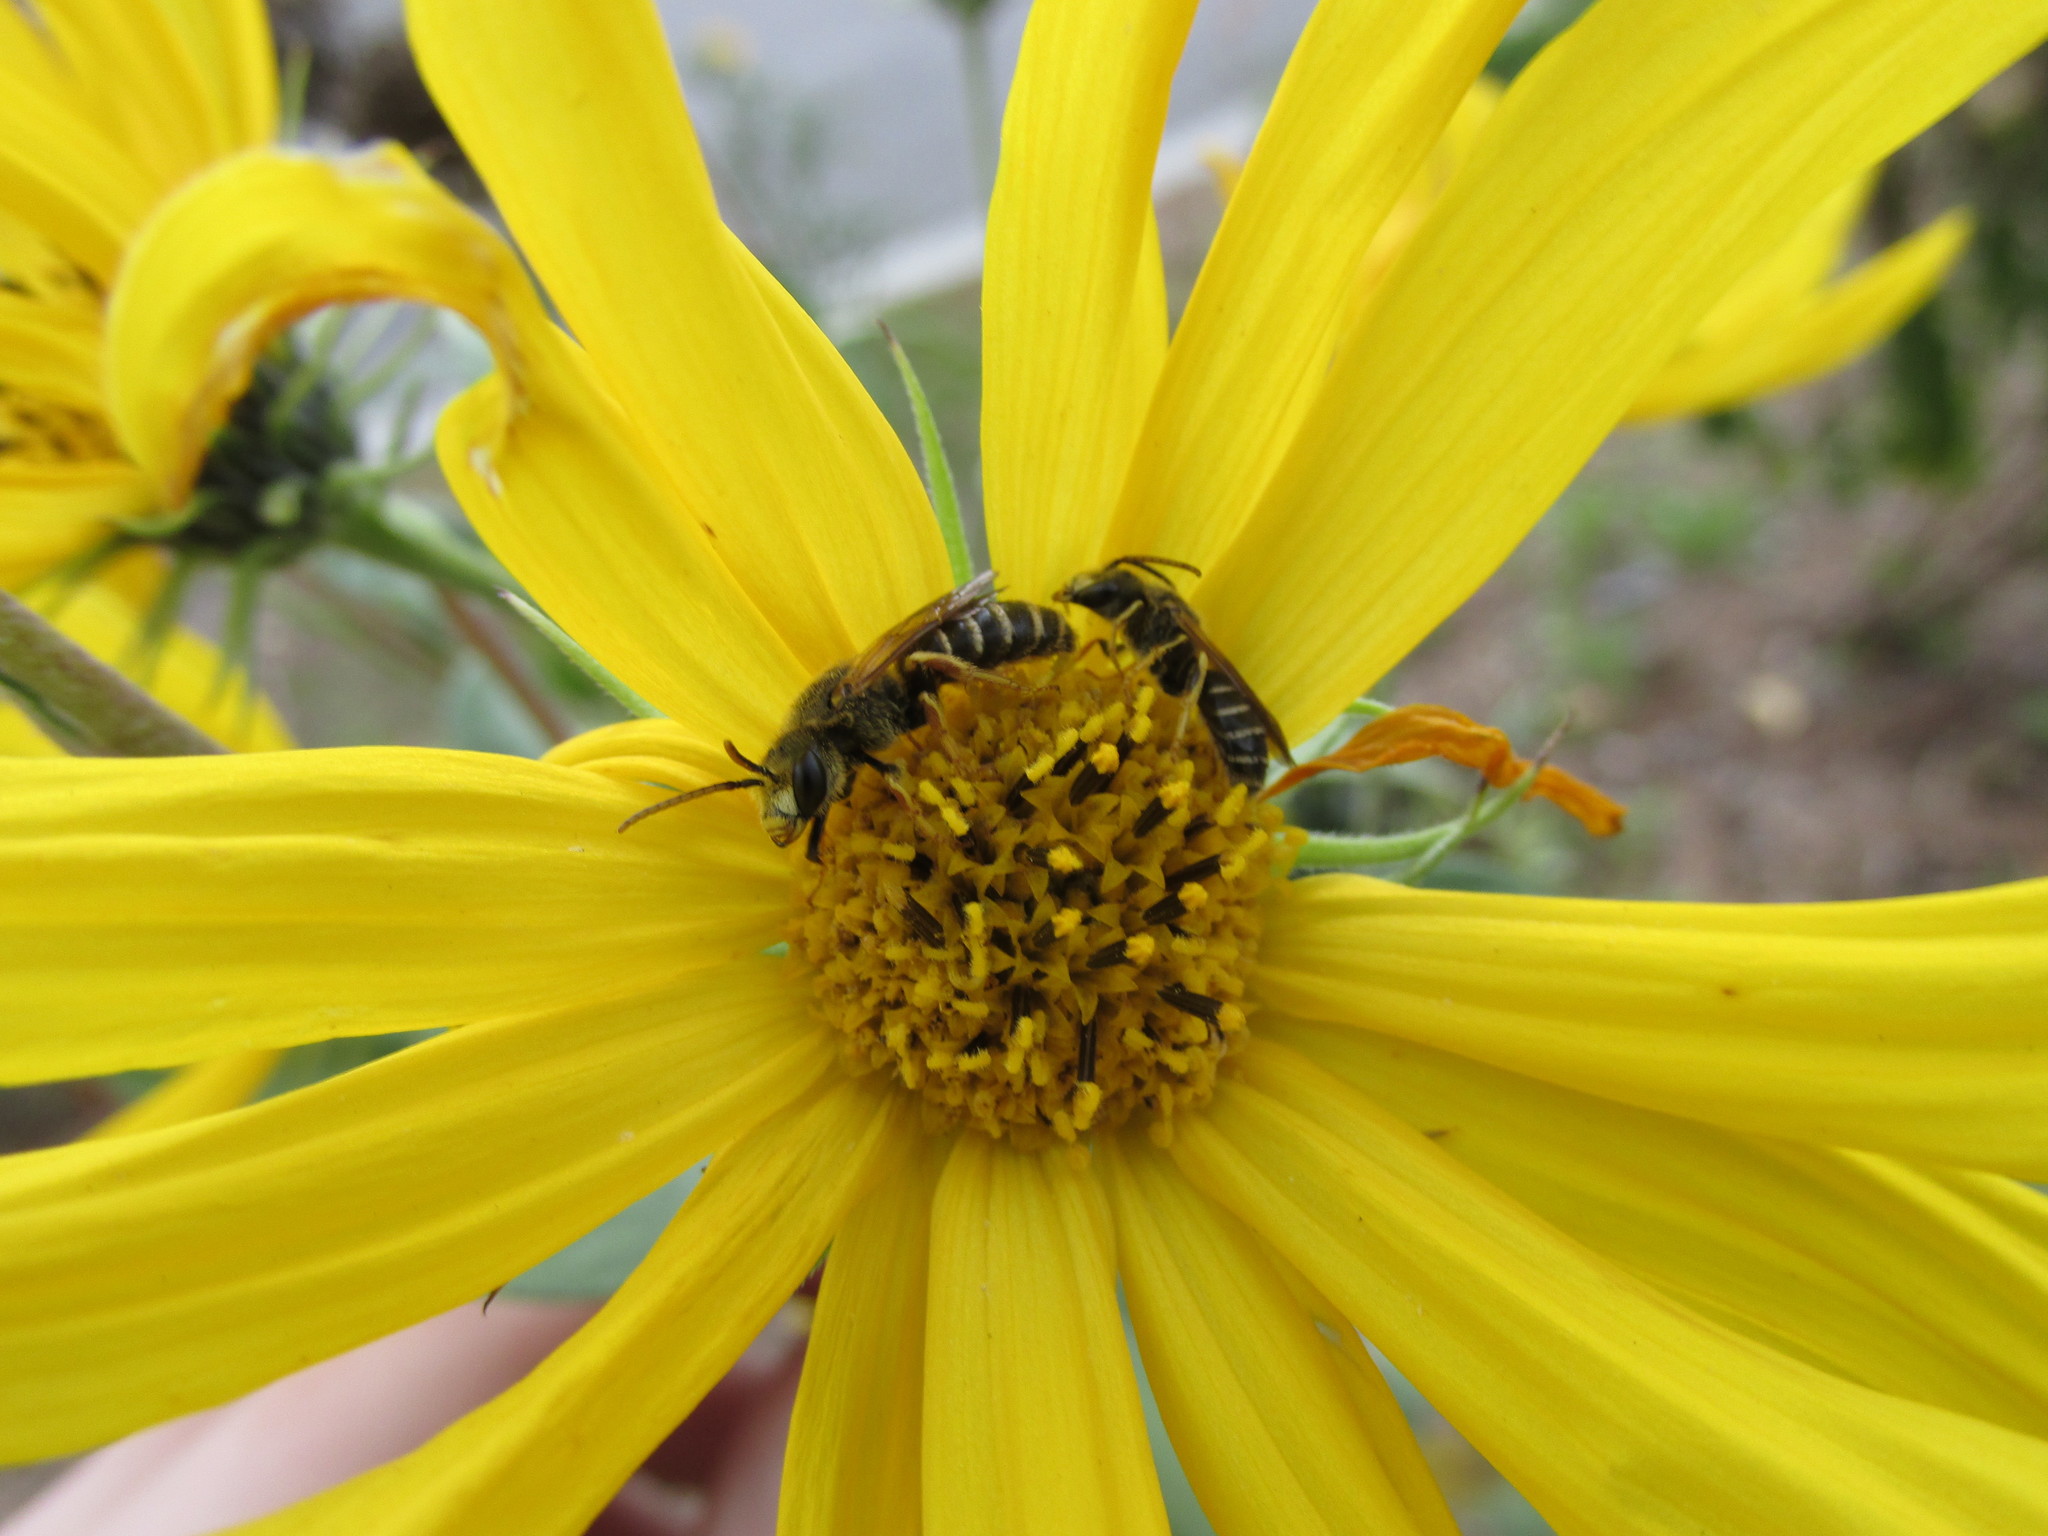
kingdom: Animalia
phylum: Arthropoda
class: Insecta
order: Hymenoptera
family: Halictidae
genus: Halictus
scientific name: Halictus poeyi
